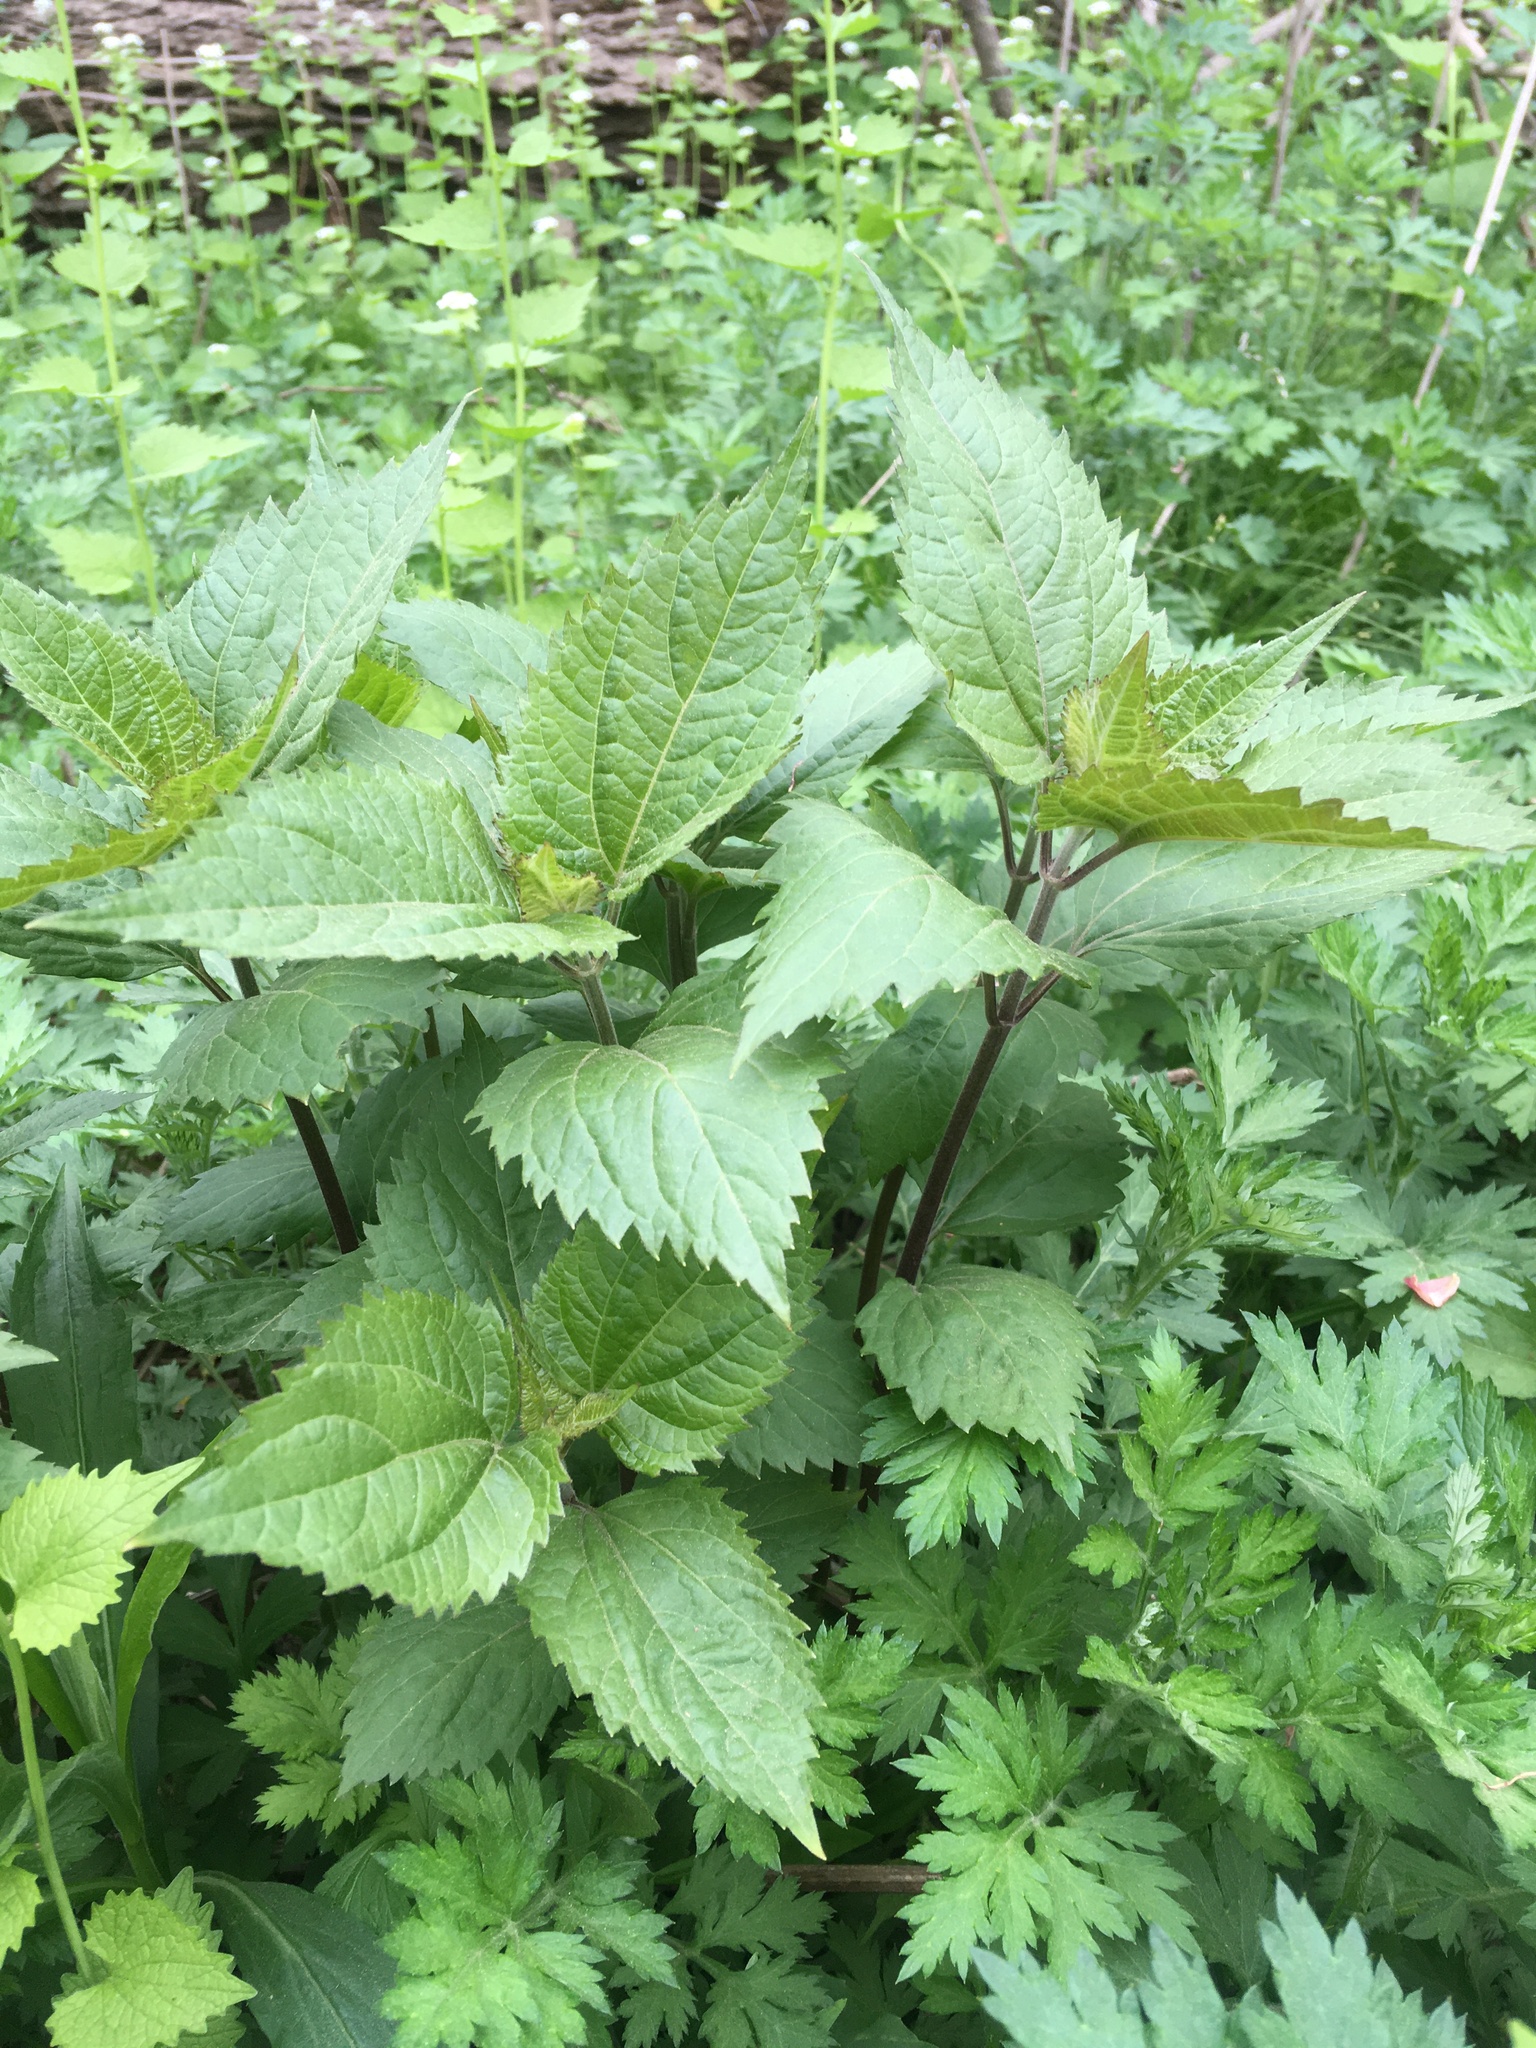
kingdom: Plantae
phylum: Tracheophyta
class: Magnoliopsida
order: Asterales
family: Asteraceae
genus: Ageratina
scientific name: Ageratina altissima
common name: White snakeroot
